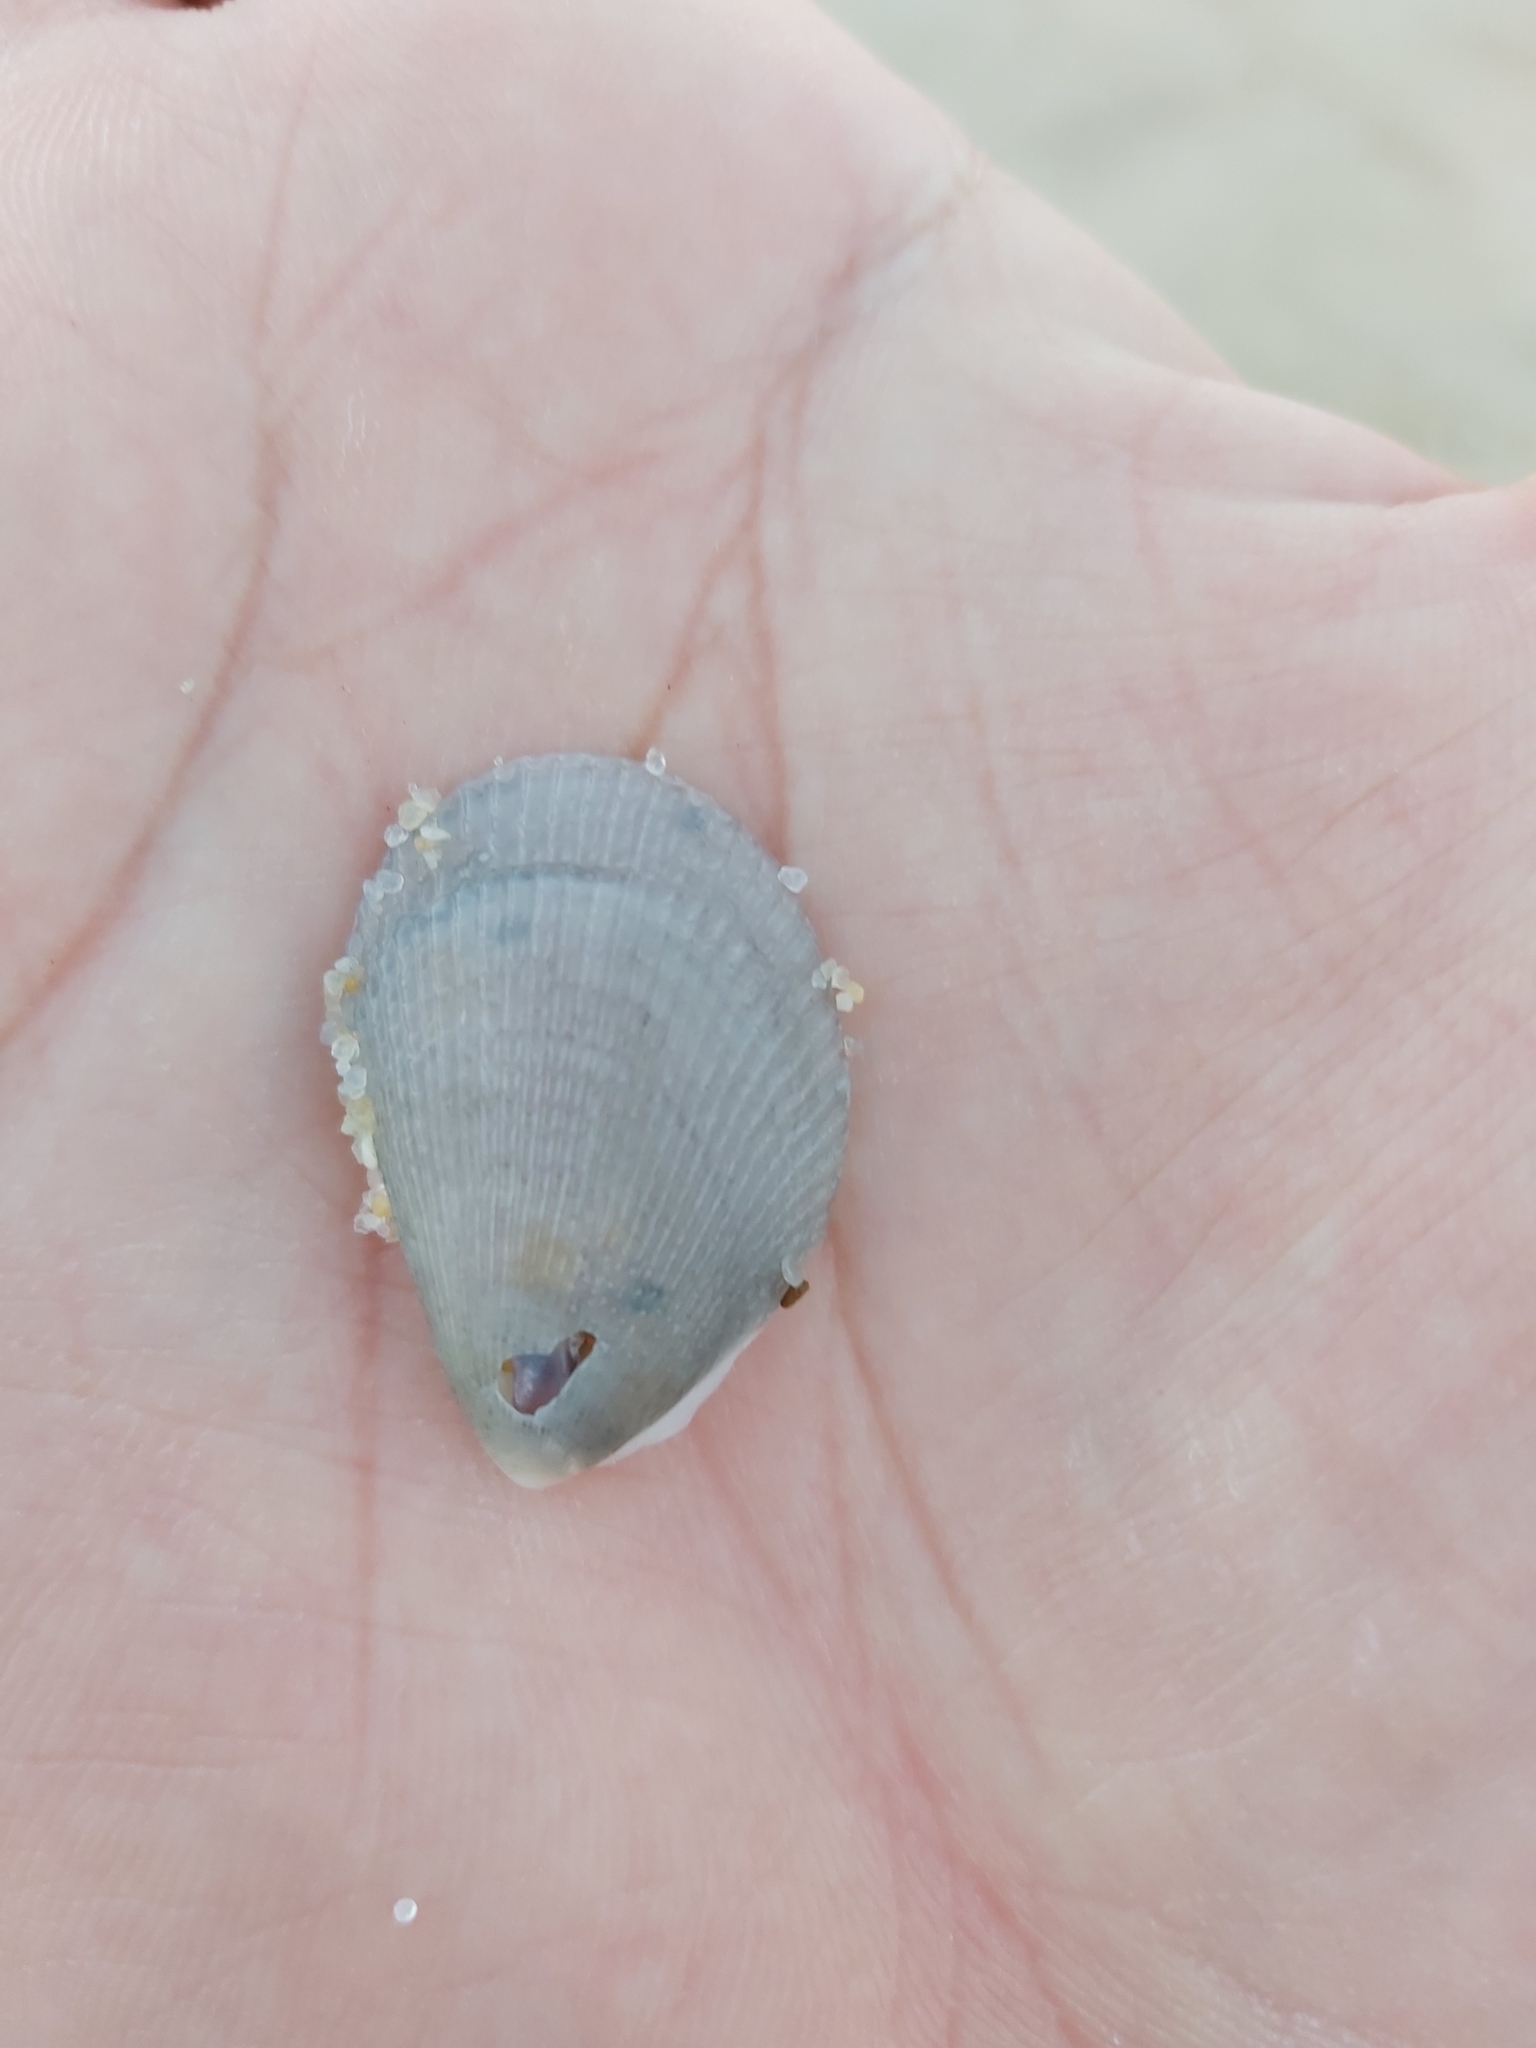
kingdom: Animalia
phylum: Mollusca
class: Bivalvia
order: Limida
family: Limidae
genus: Lima
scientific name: Lima nimbifer
